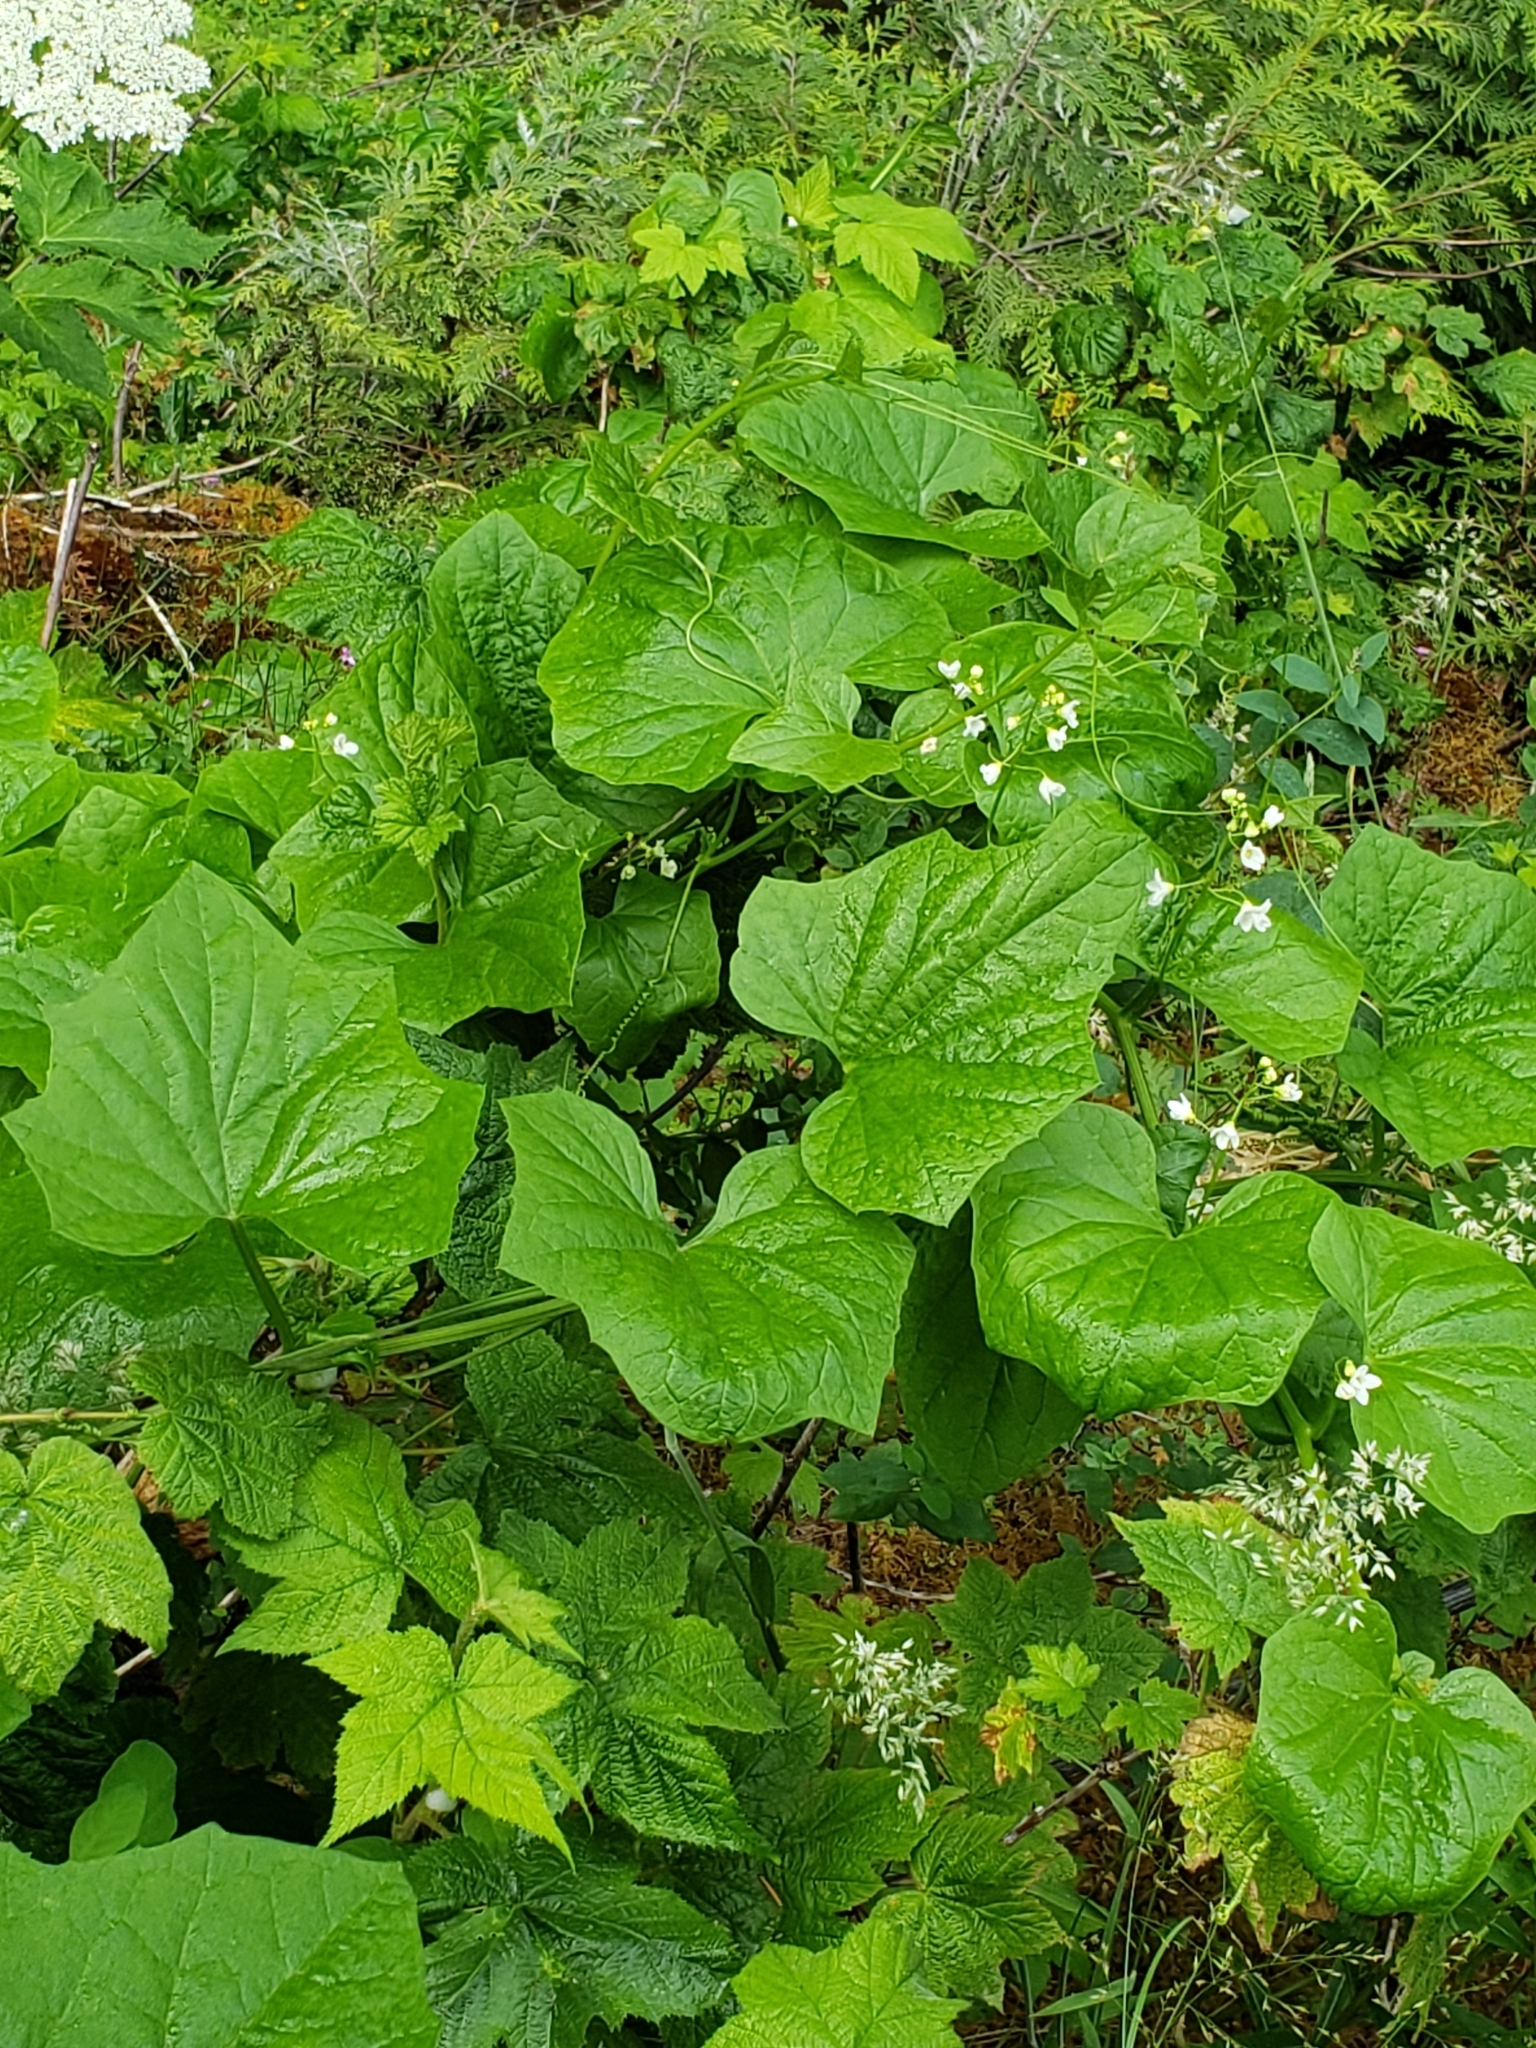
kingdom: Plantae
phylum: Tracheophyta
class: Magnoliopsida
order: Cucurbitales
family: Cucurbitaceae
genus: Marah
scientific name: Marah oregana
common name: Coastal manroot
